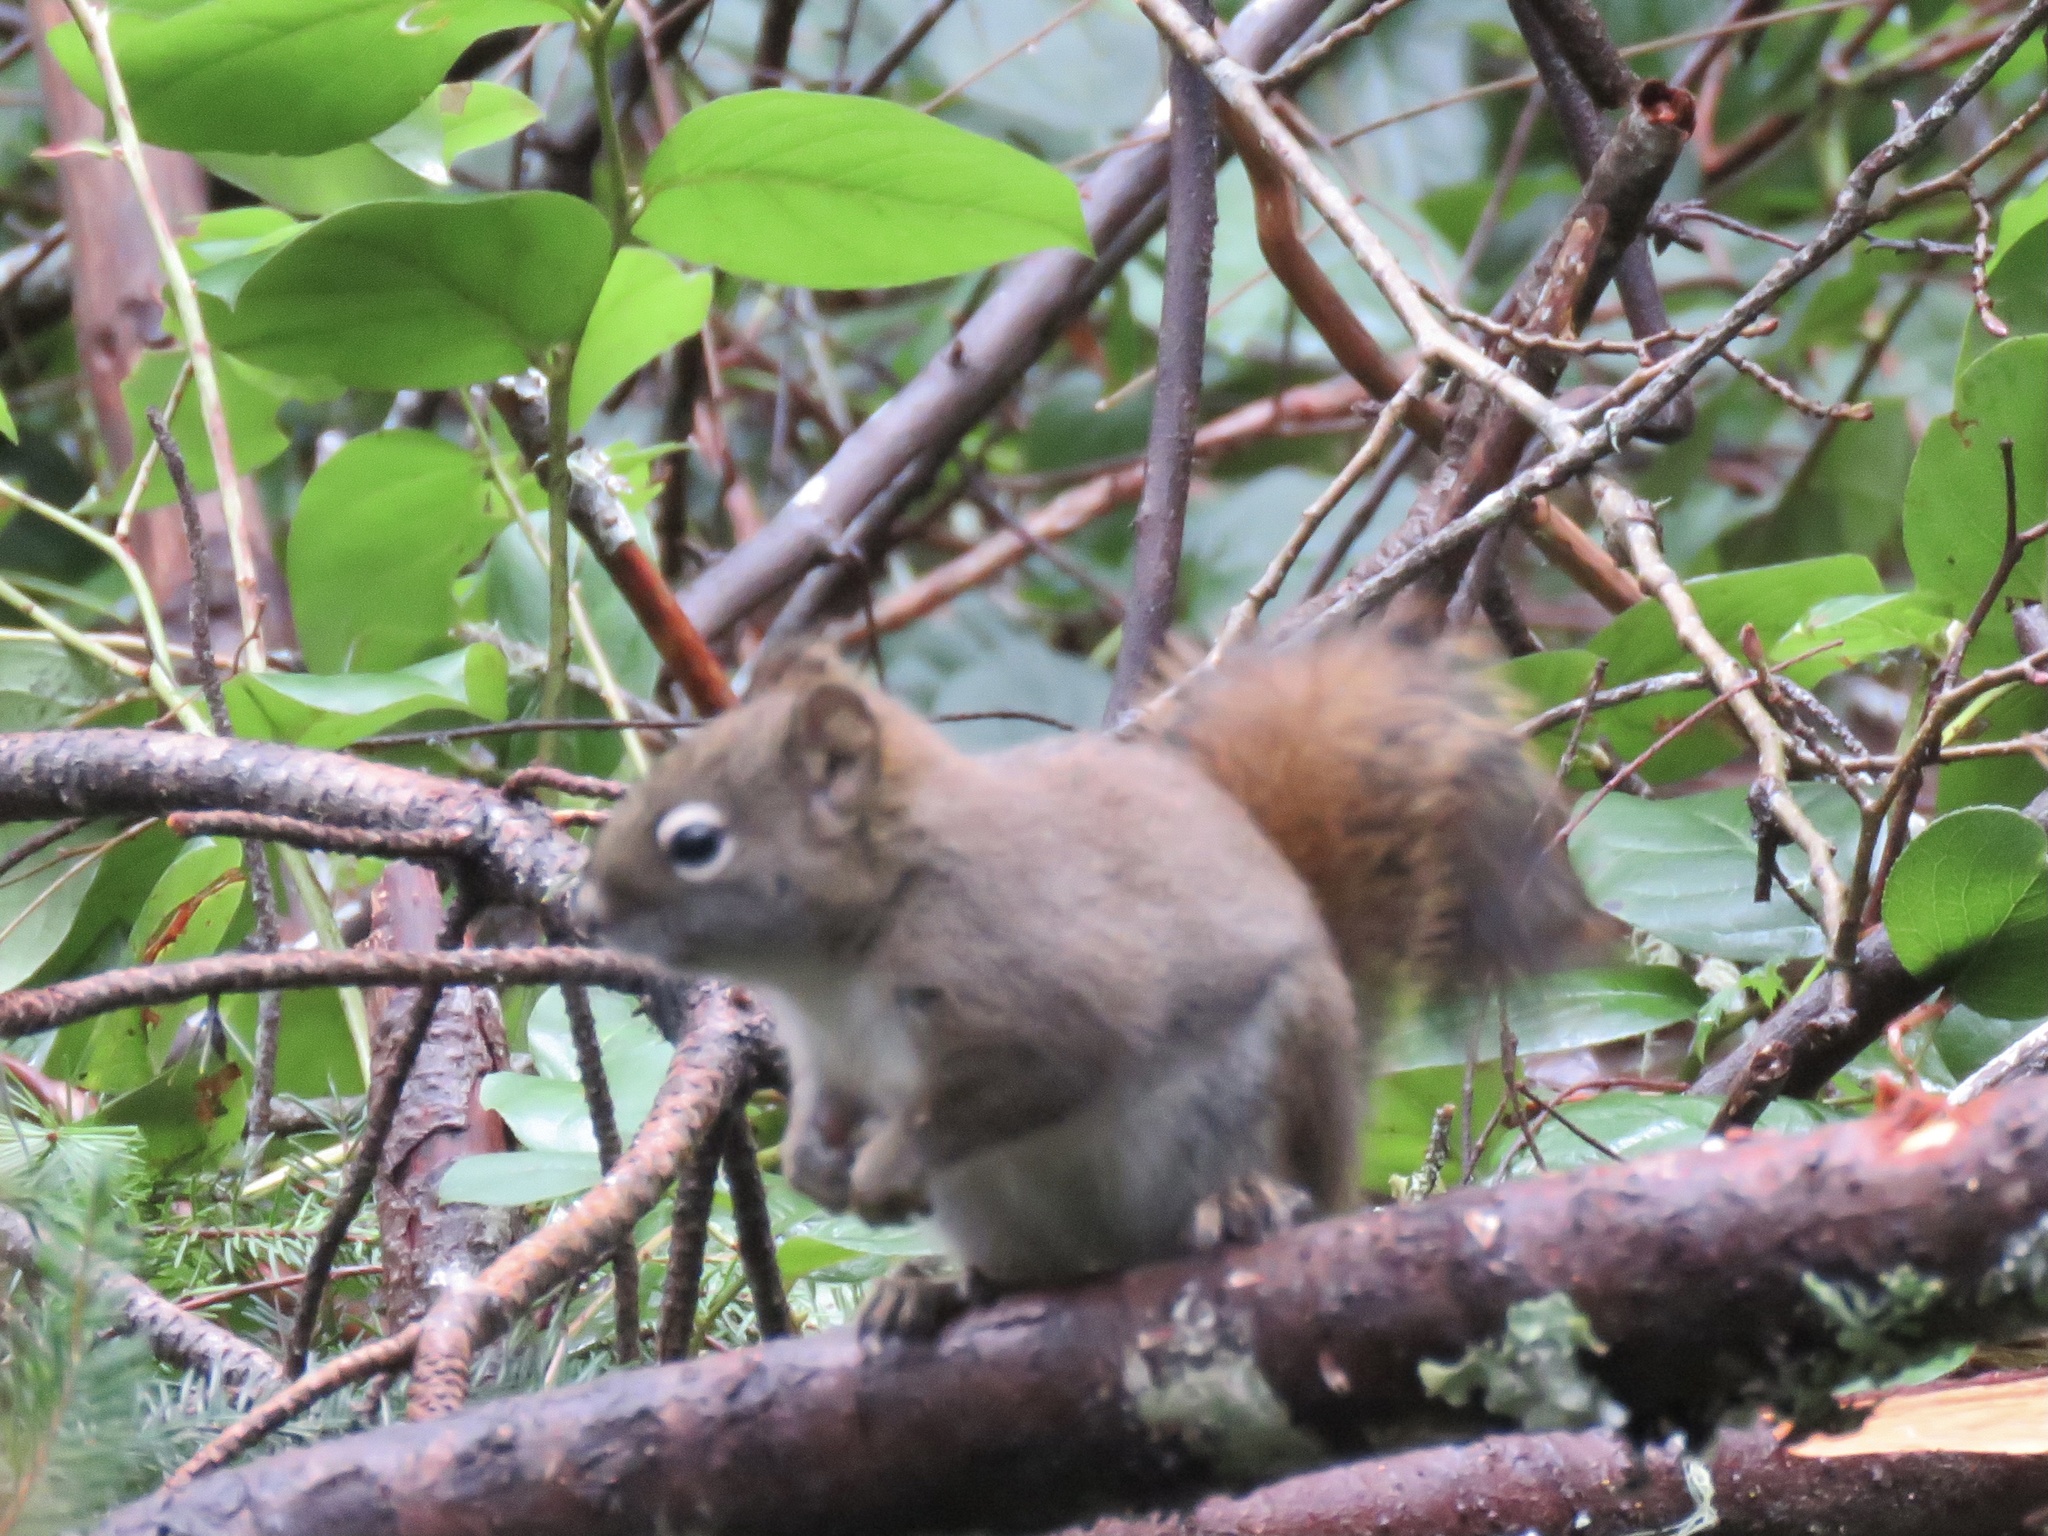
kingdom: Animalia
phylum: Chordata
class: Mammalia
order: Rodentia
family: Sciuridae
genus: Tamiasciurus
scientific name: Tamiasciurus hudsonicus
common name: Red squirrel
